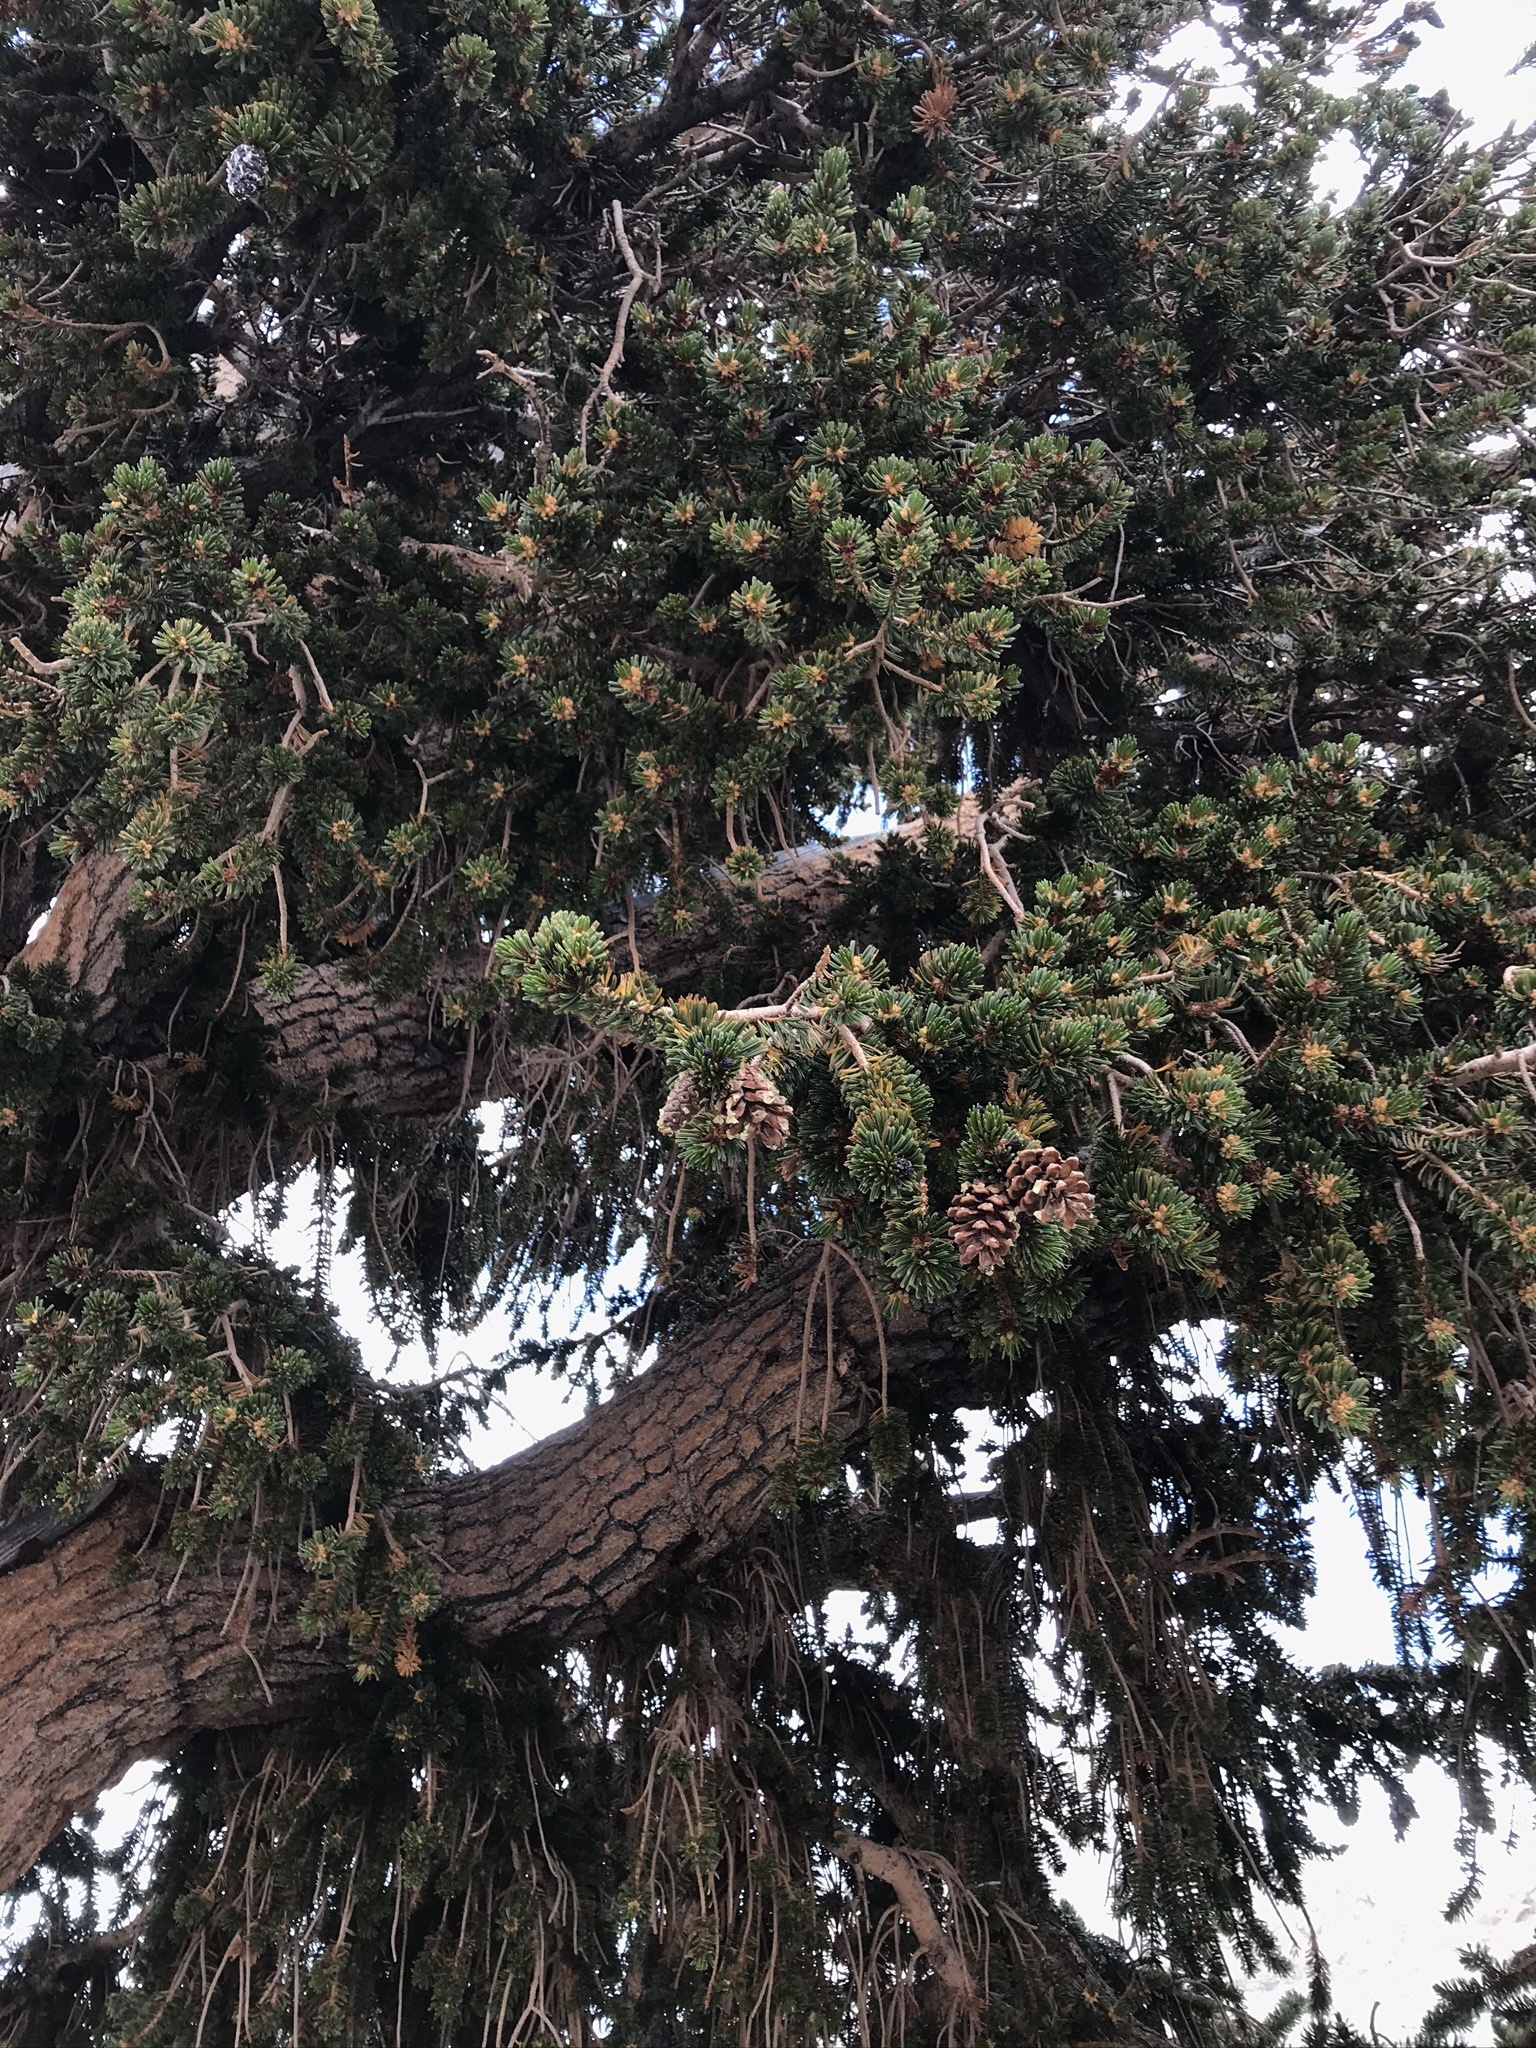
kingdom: Plantae
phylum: Tracheophyta
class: Pinopsida
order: Pinales
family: Pinaceae
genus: Pinus
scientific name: Pinus balfouriana
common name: Foxtail pine
